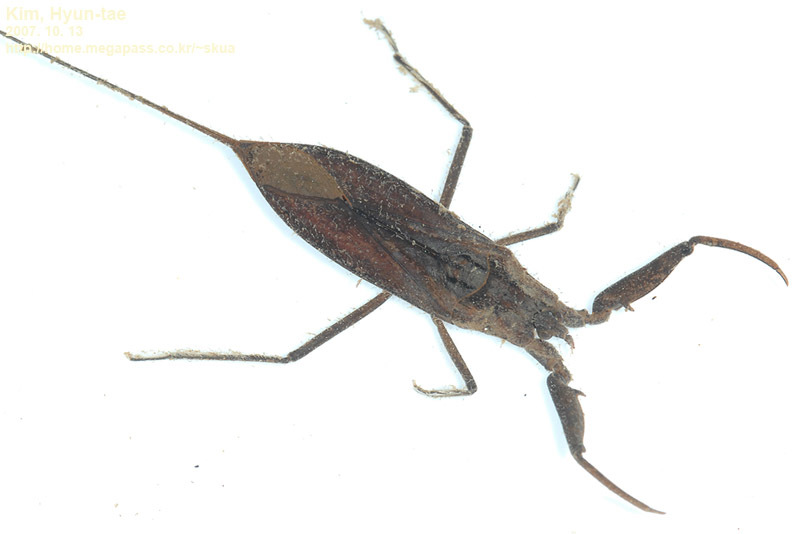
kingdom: Animalia
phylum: Arthropoda
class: Insecta
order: Hemiptera
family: Nepidae
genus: Laccotrephes
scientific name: Laccotrephes japonensis
